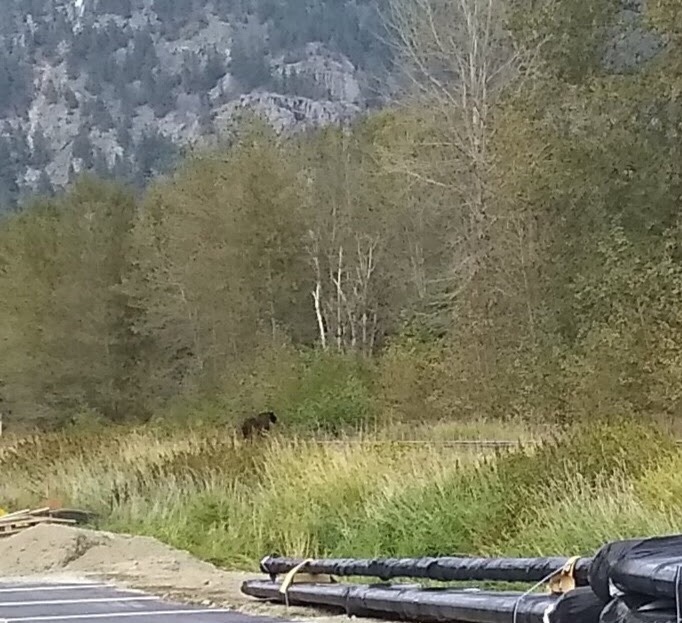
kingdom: Animalia
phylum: Chordata
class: Mammalia
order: Carnivora
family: Ursidae
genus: Ursus
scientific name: Ursus americanus
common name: American black bear
